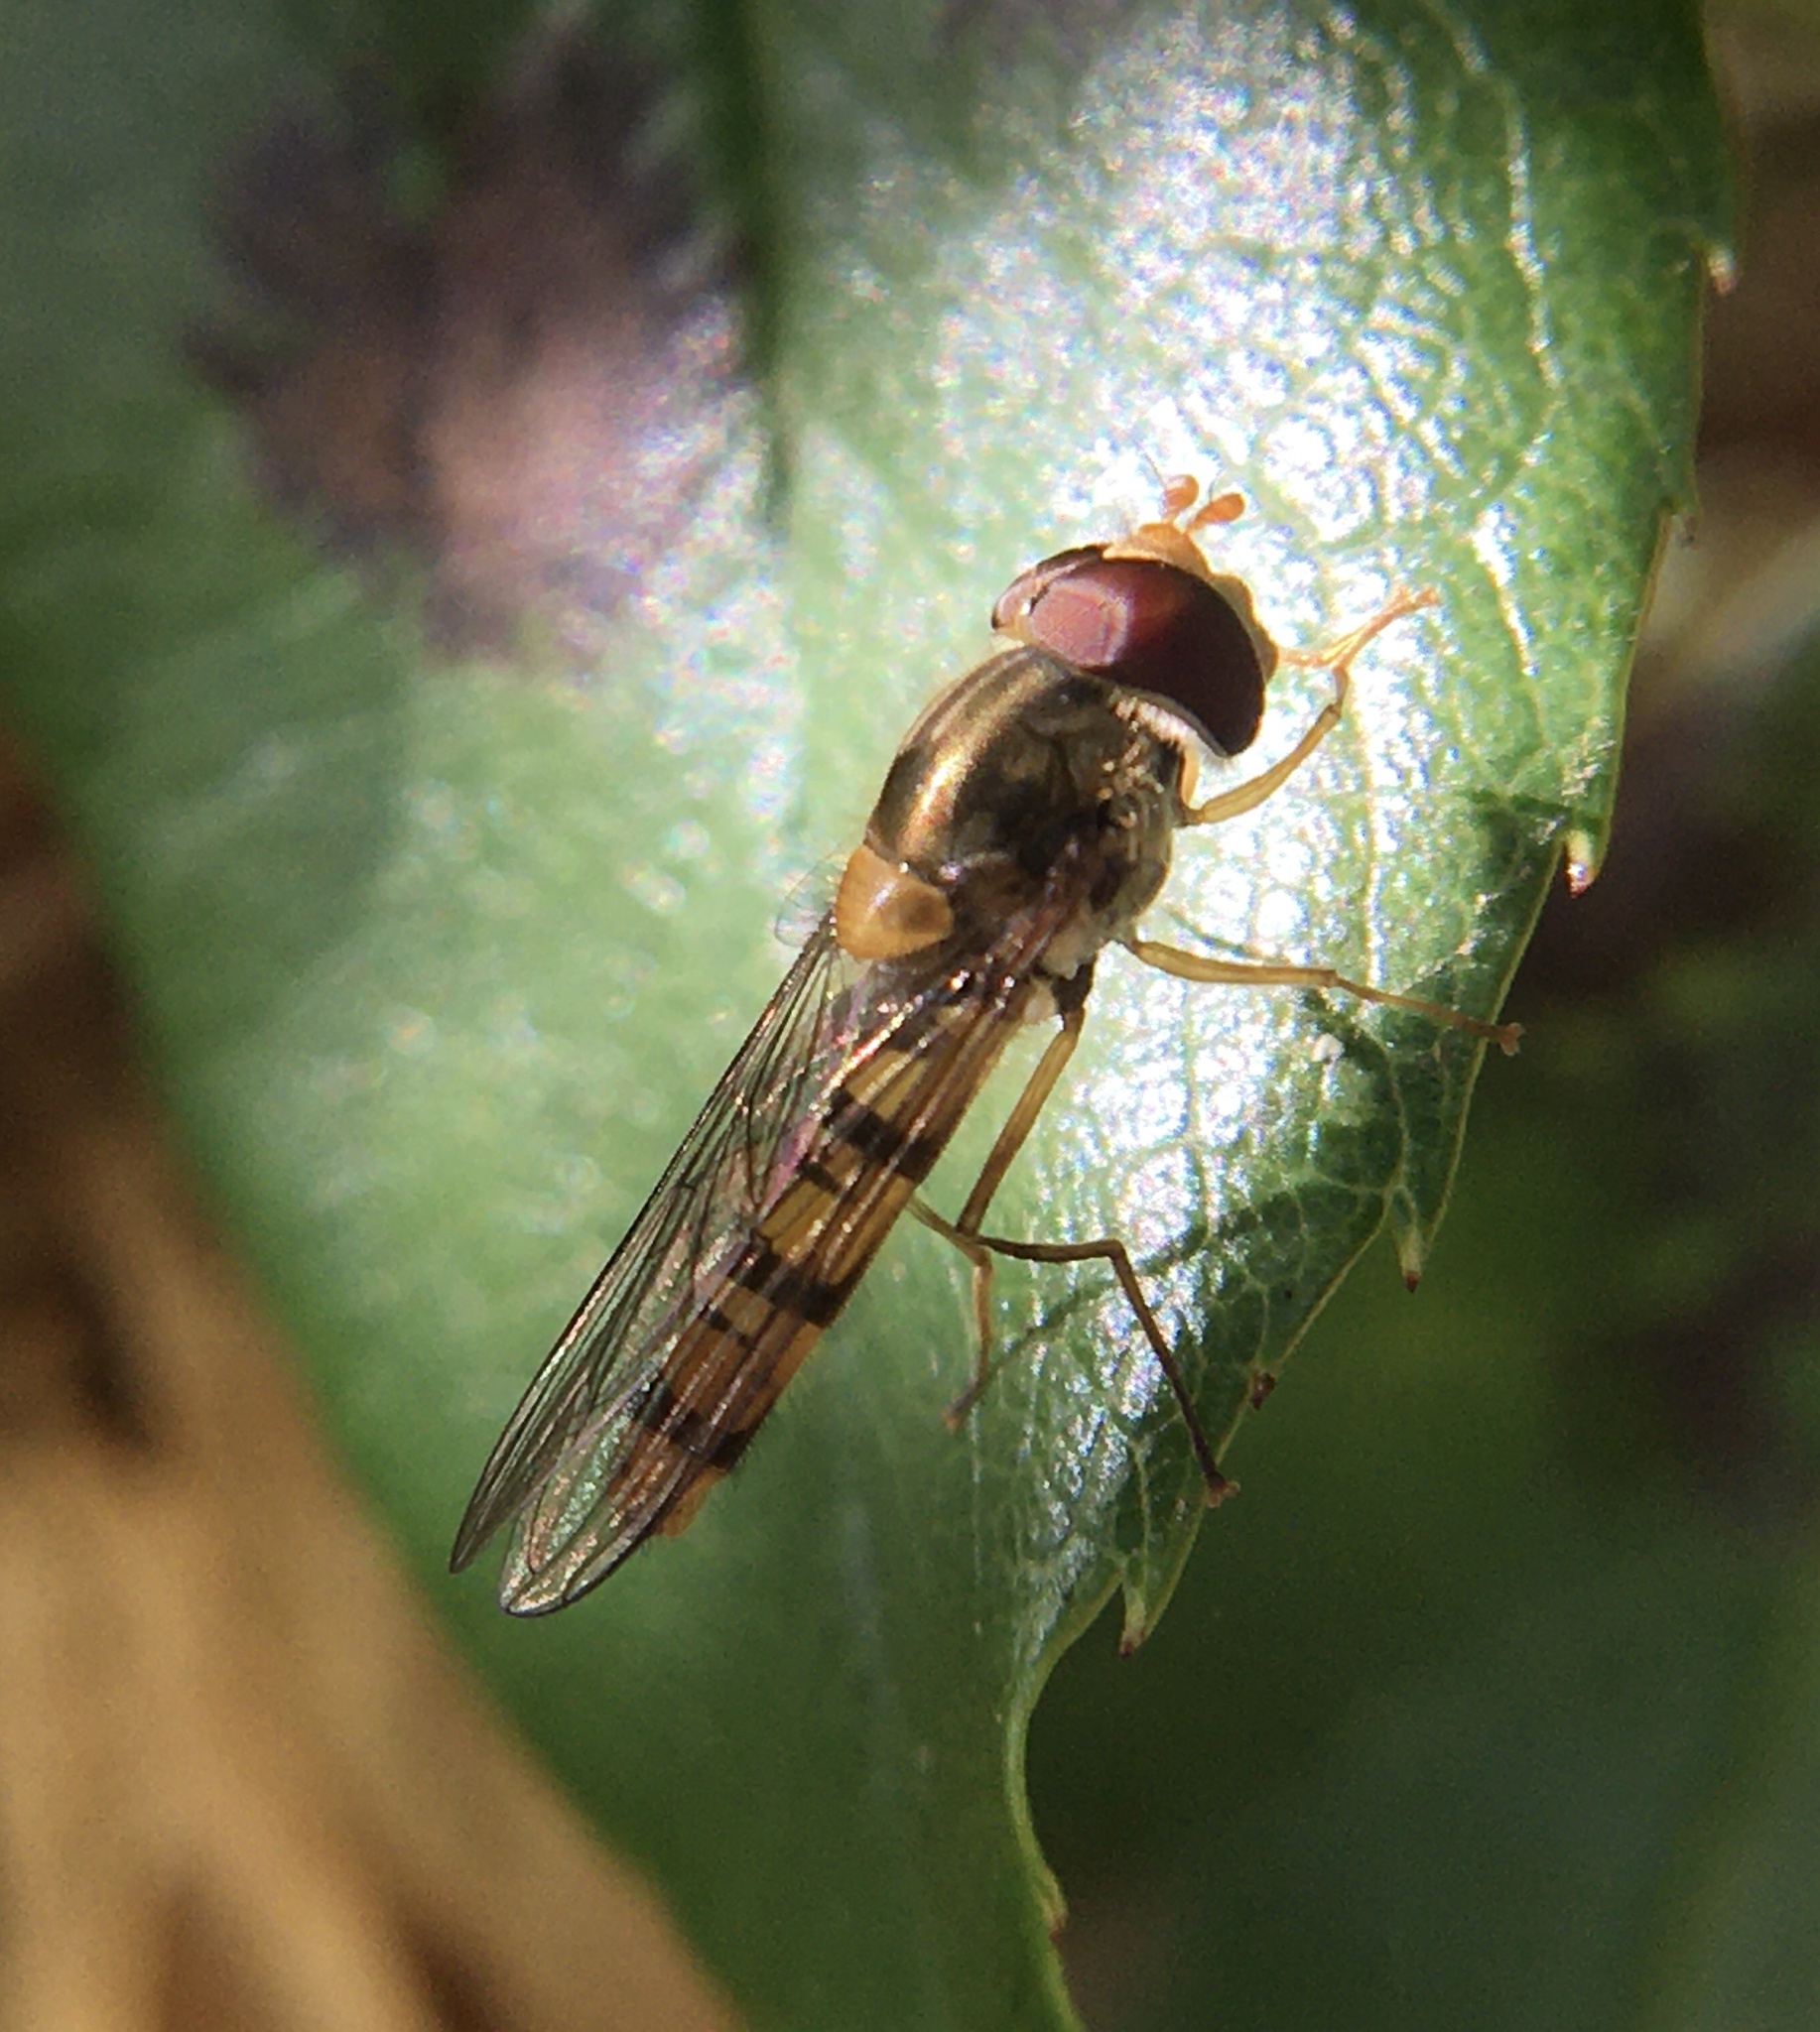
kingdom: Animalia
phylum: Arthropoda
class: Insecta
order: Diptera
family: Syrphidae
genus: Episyrphus
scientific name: Episyrphus balteatus
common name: Marmalade hoverfly
